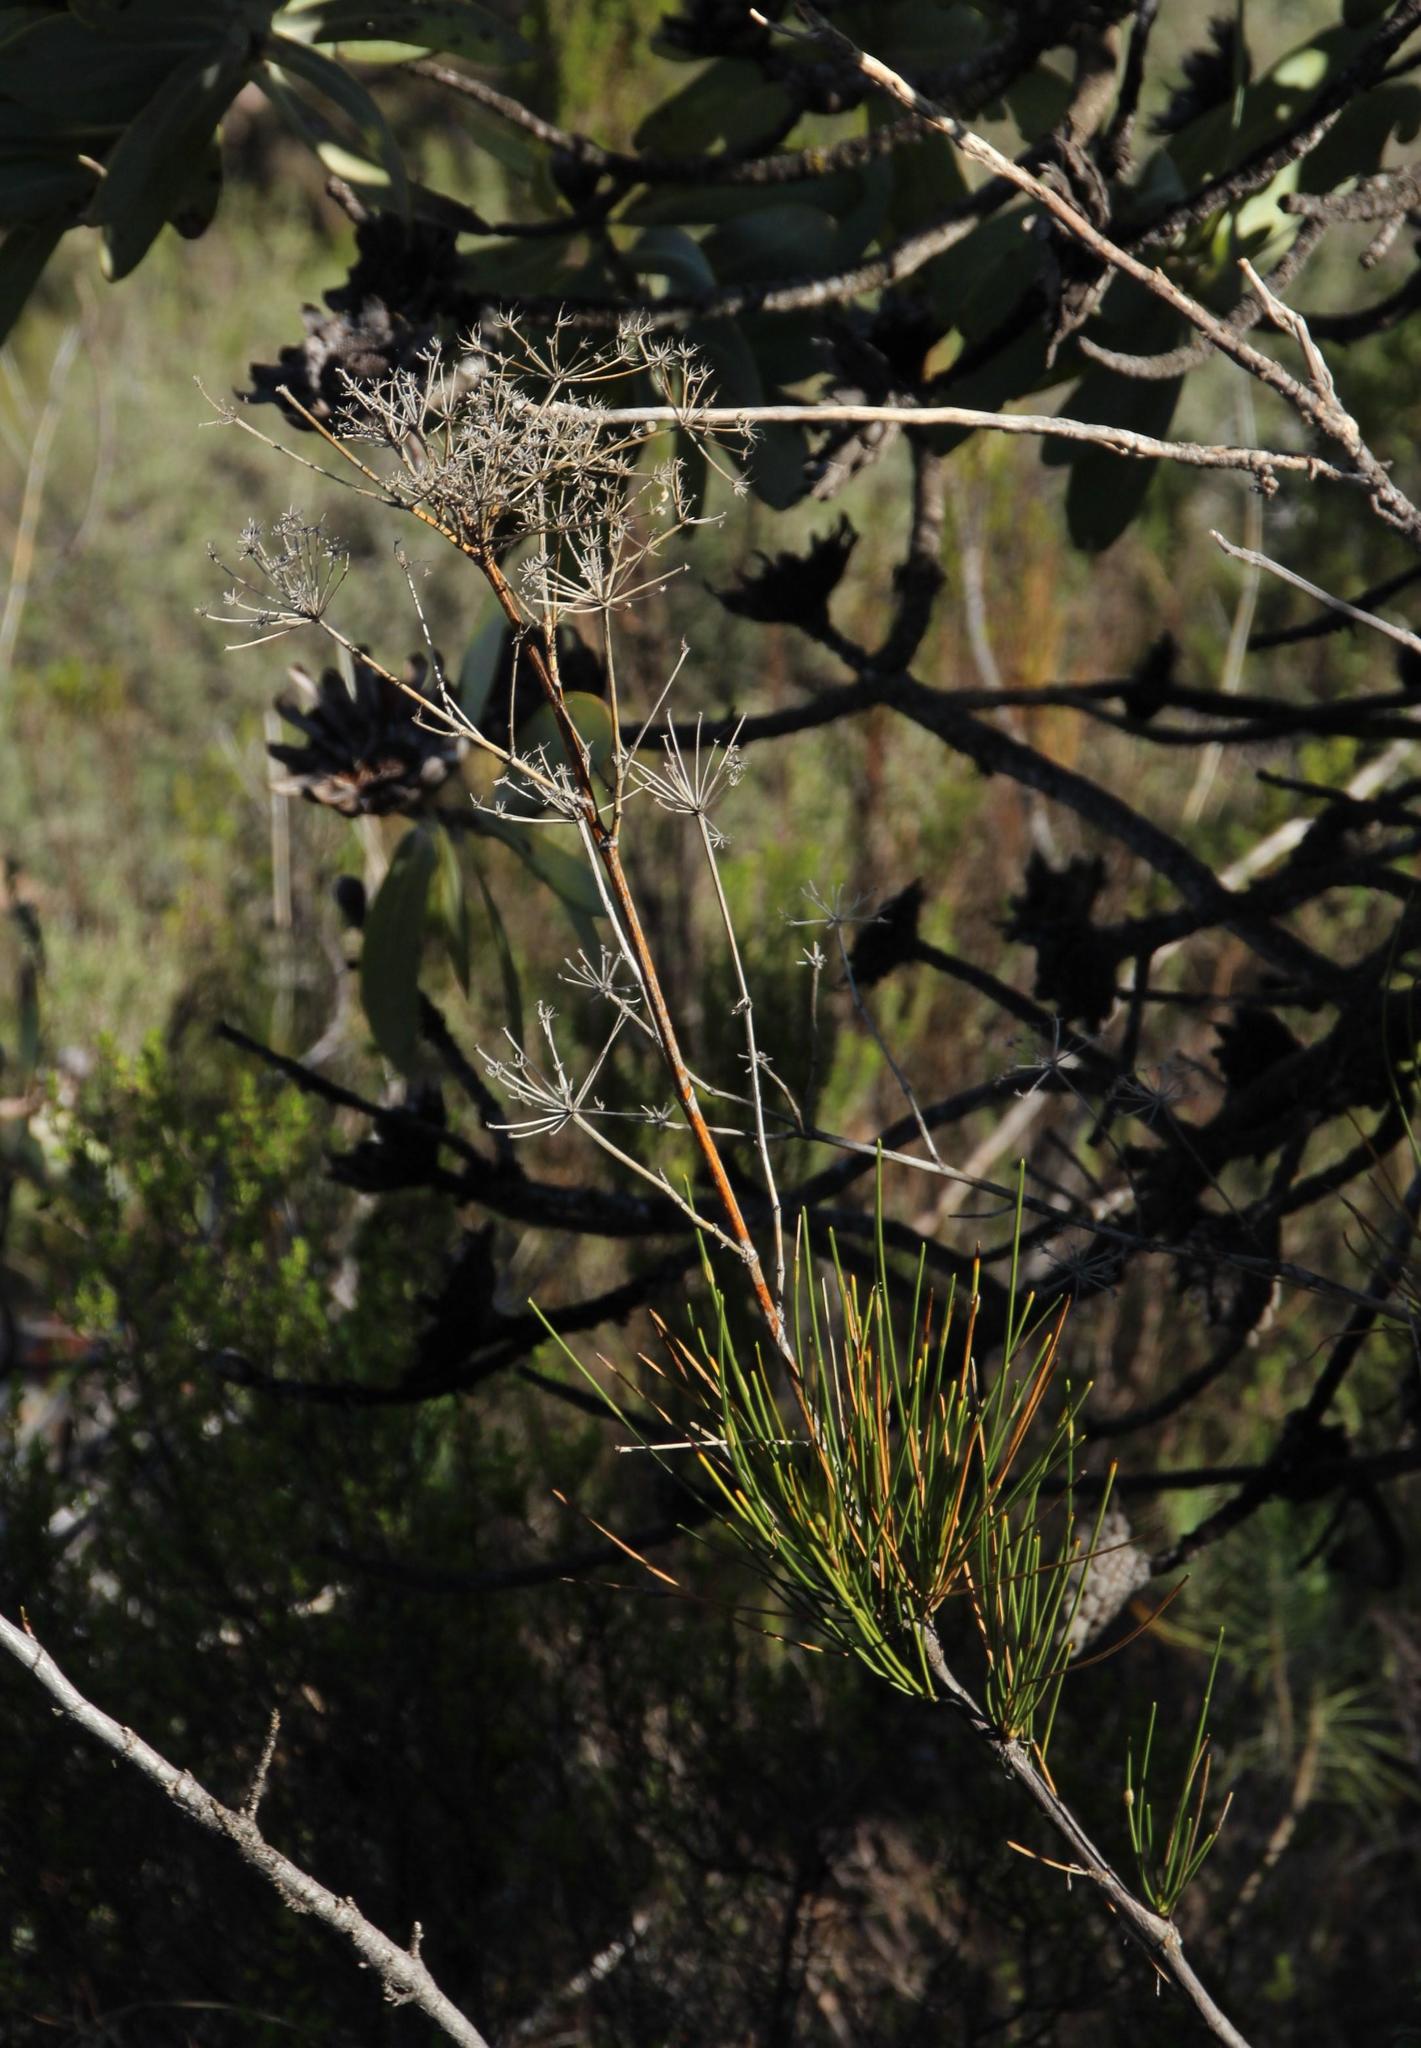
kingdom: Plantae
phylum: Tracheophyta
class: Magnoliopsida
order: Apiales
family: Apiaceae
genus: Anginon
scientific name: Anginon difforme
